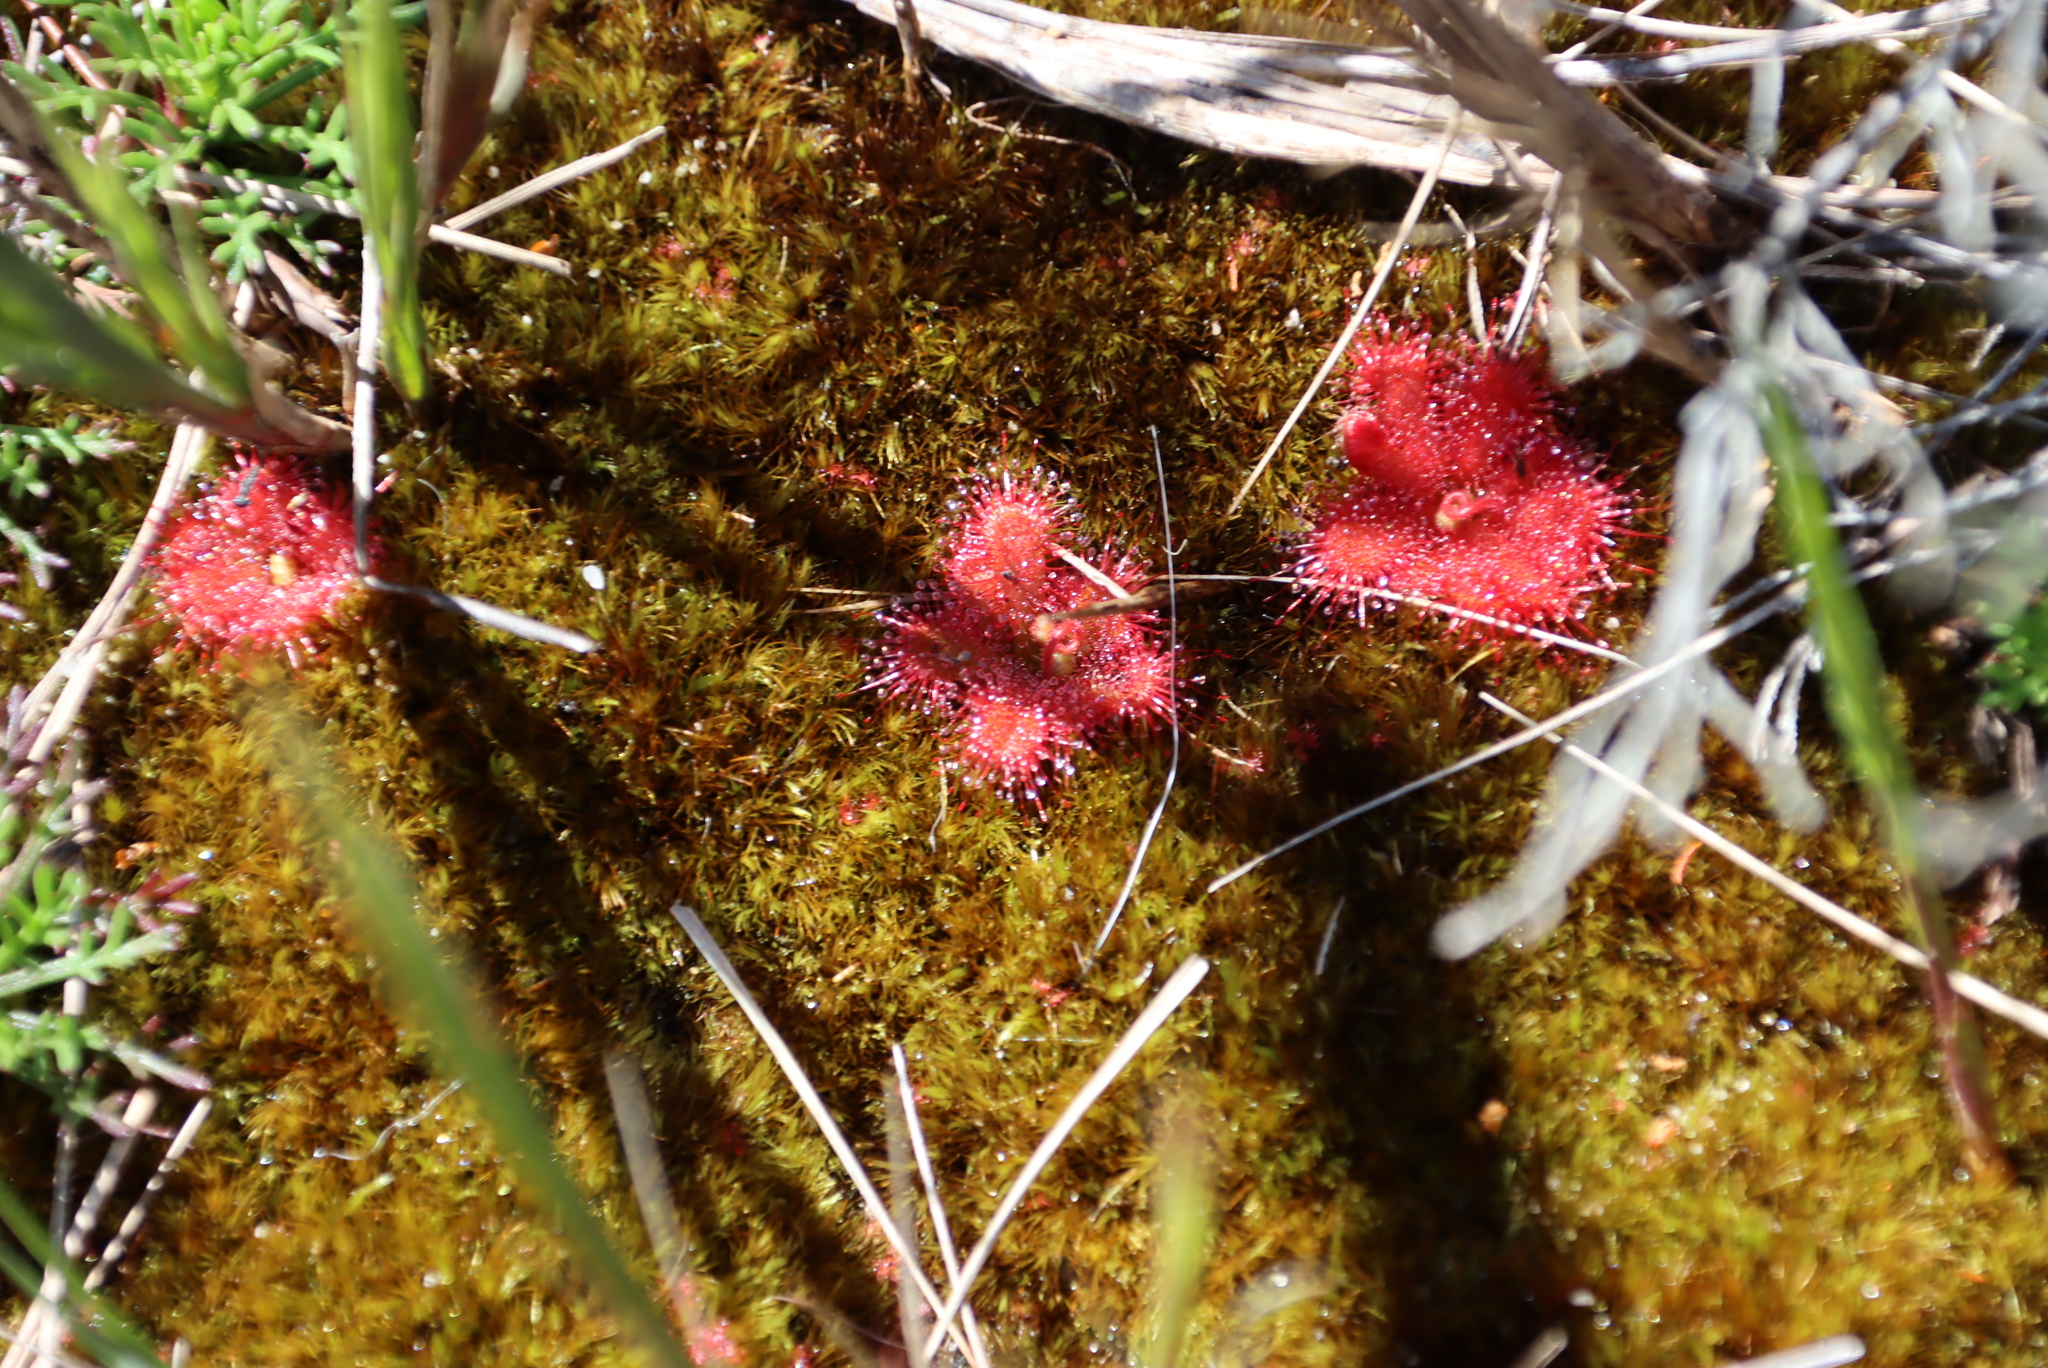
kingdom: Plantae
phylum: Tracheophyta
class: Magnoliopsida
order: Caryophyllales
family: Droseraceae
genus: Drosera
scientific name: Drosera trinervia
